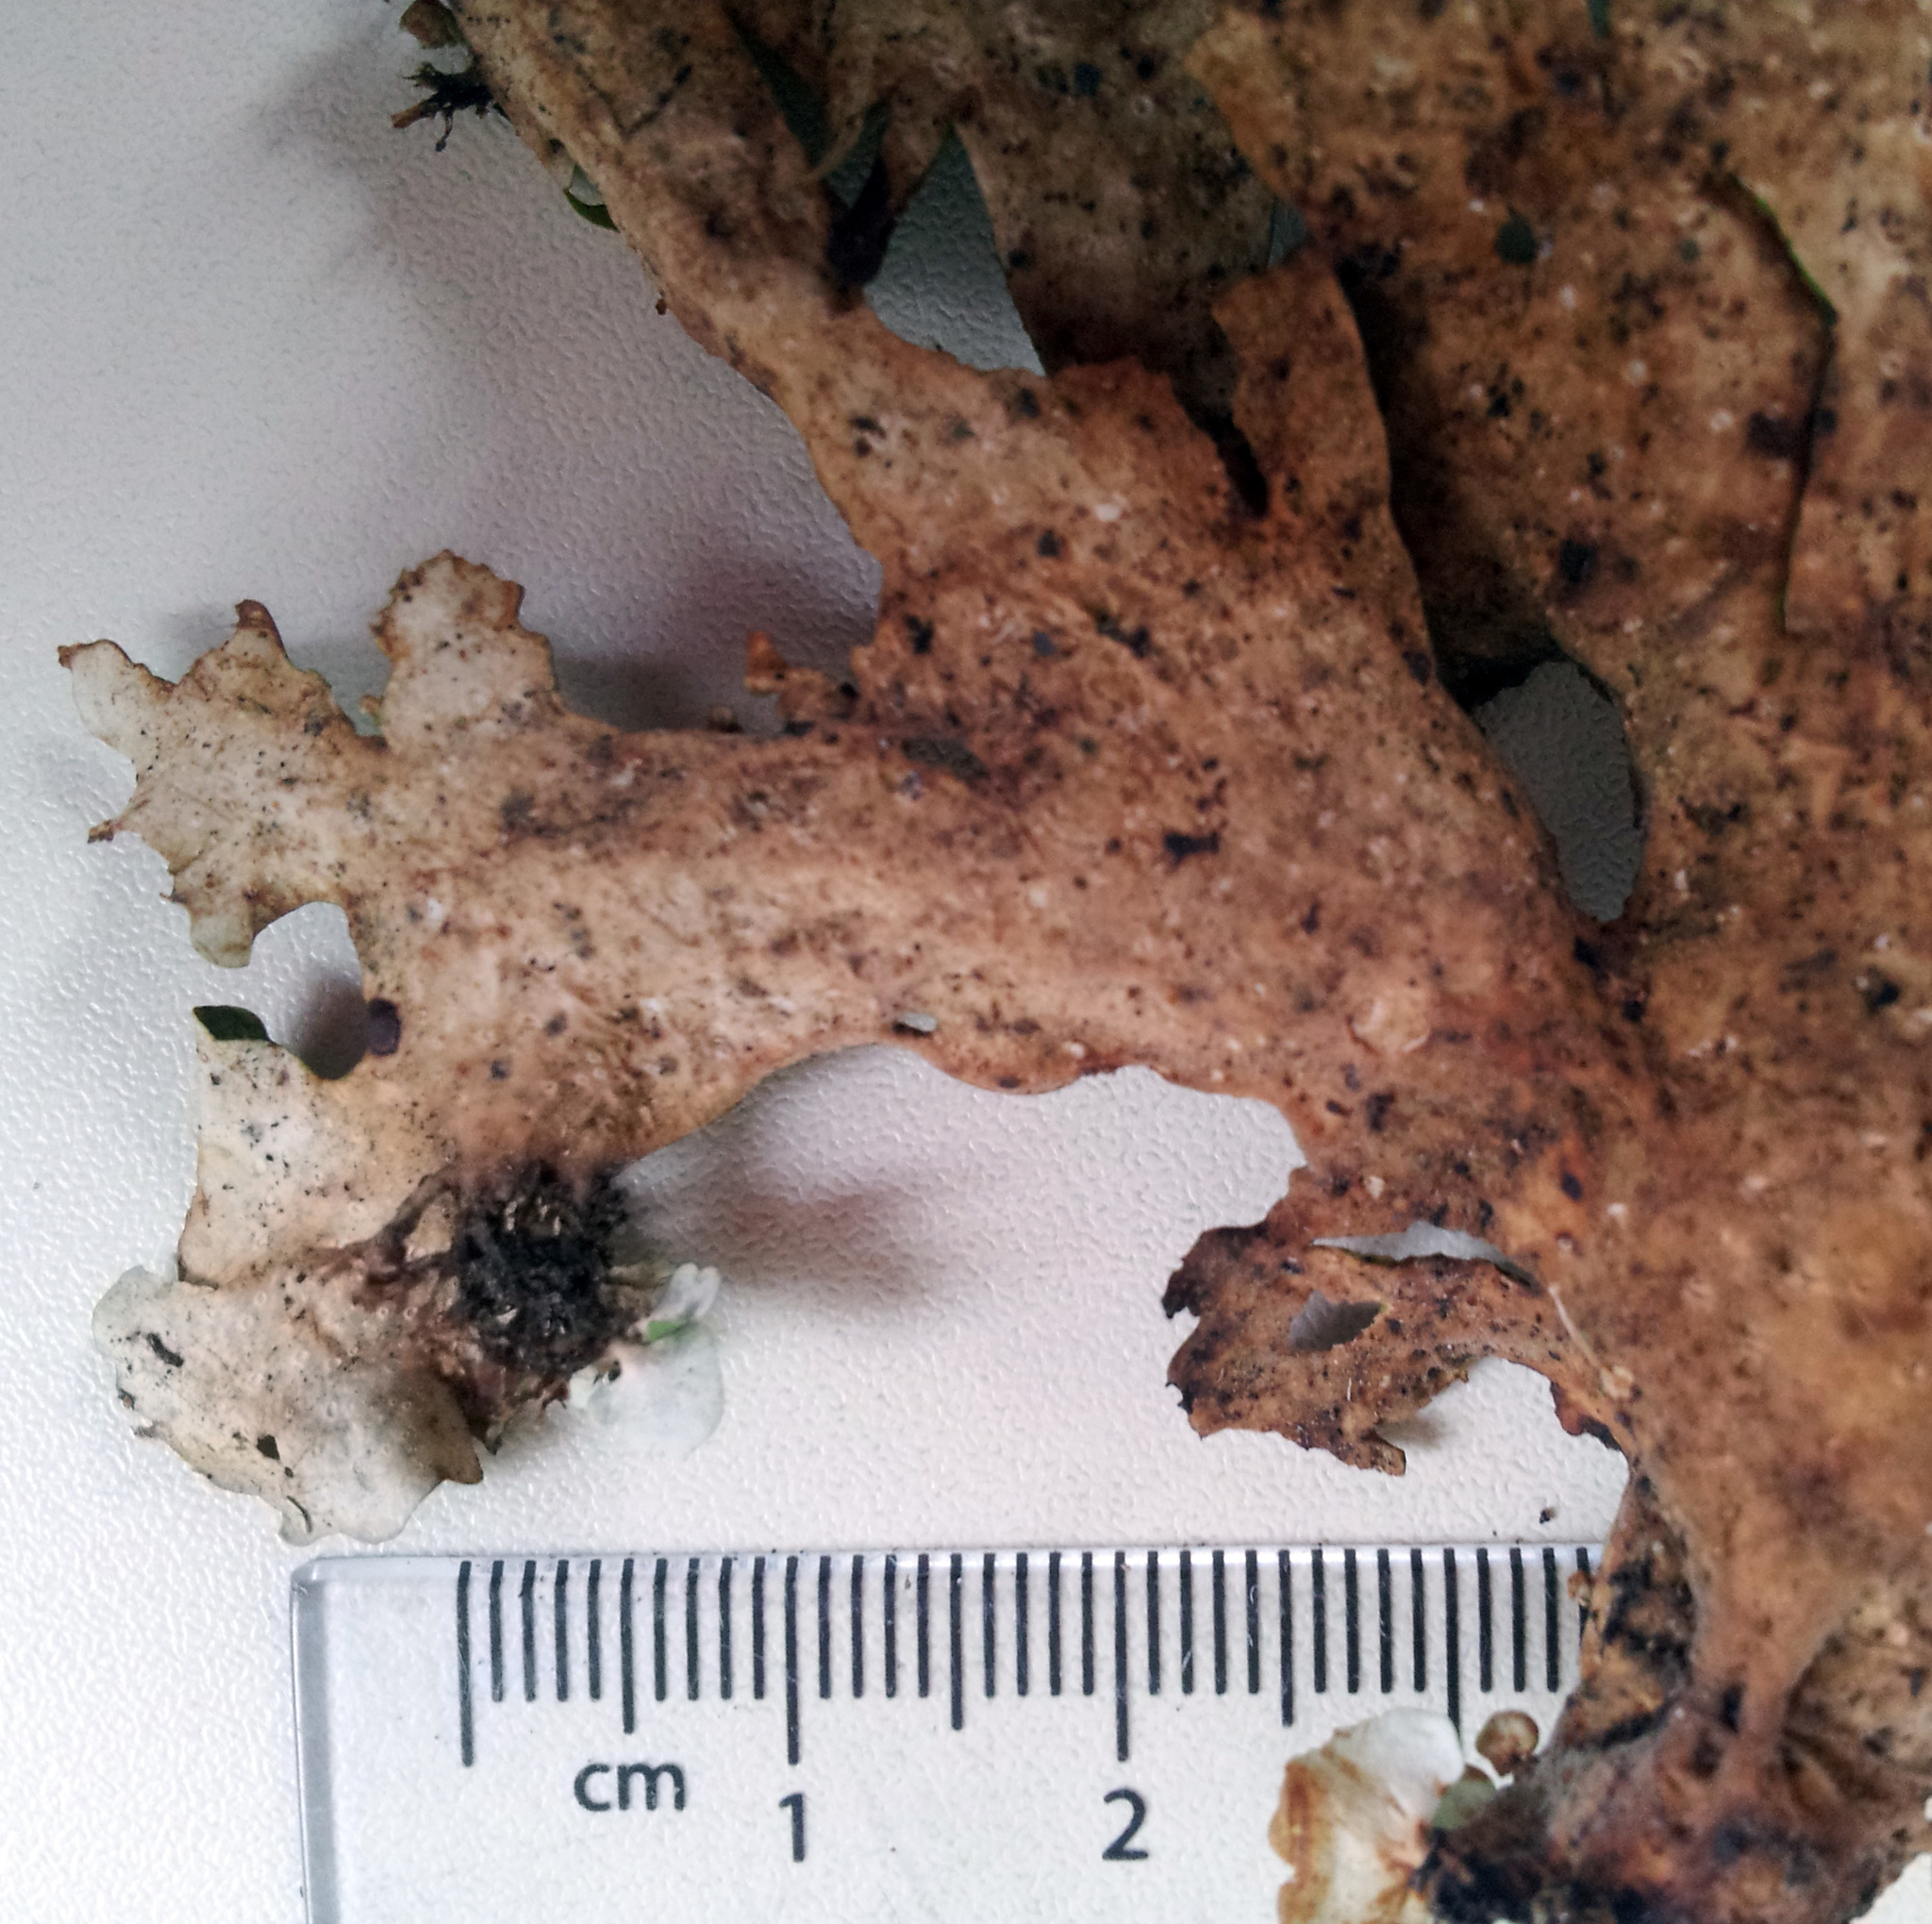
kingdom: Fungi
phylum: Ascomycota
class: Lecanoromycetes
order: Peltigerales
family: Lobariaceae
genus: Sticta
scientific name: Sticta latifrons
